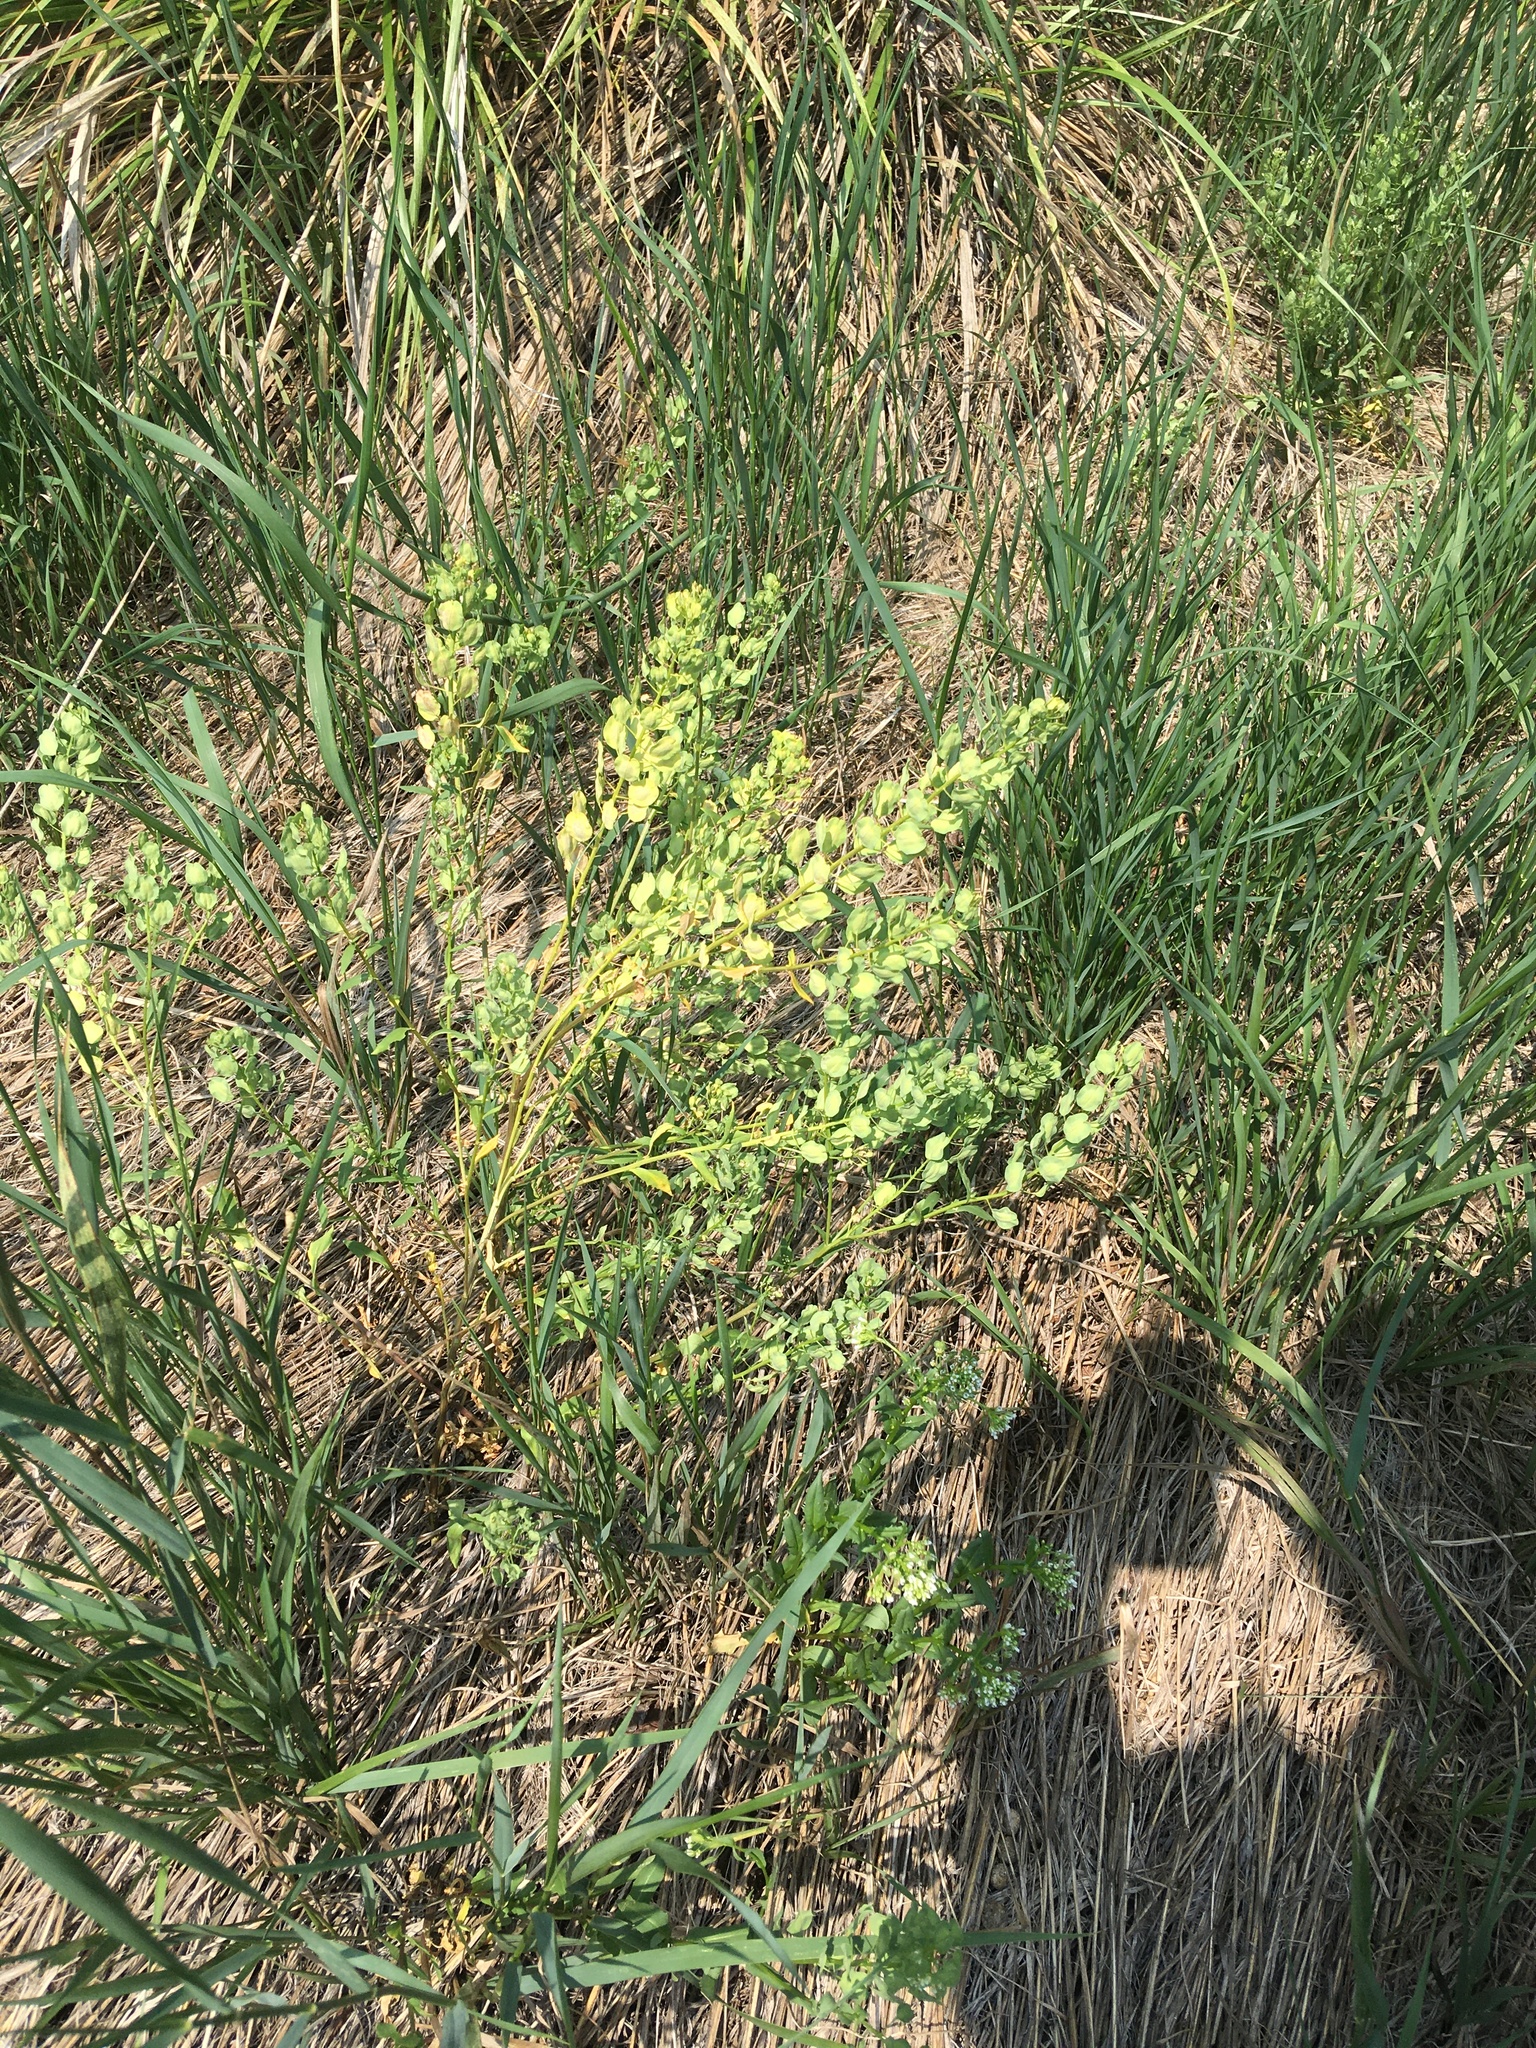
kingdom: Plantae
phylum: Tracheophyta
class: Magnoliopsida
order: Brassicales
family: Brassicaceae
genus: Thlaspi
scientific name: Thlaspi arvense
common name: Field pennycress
